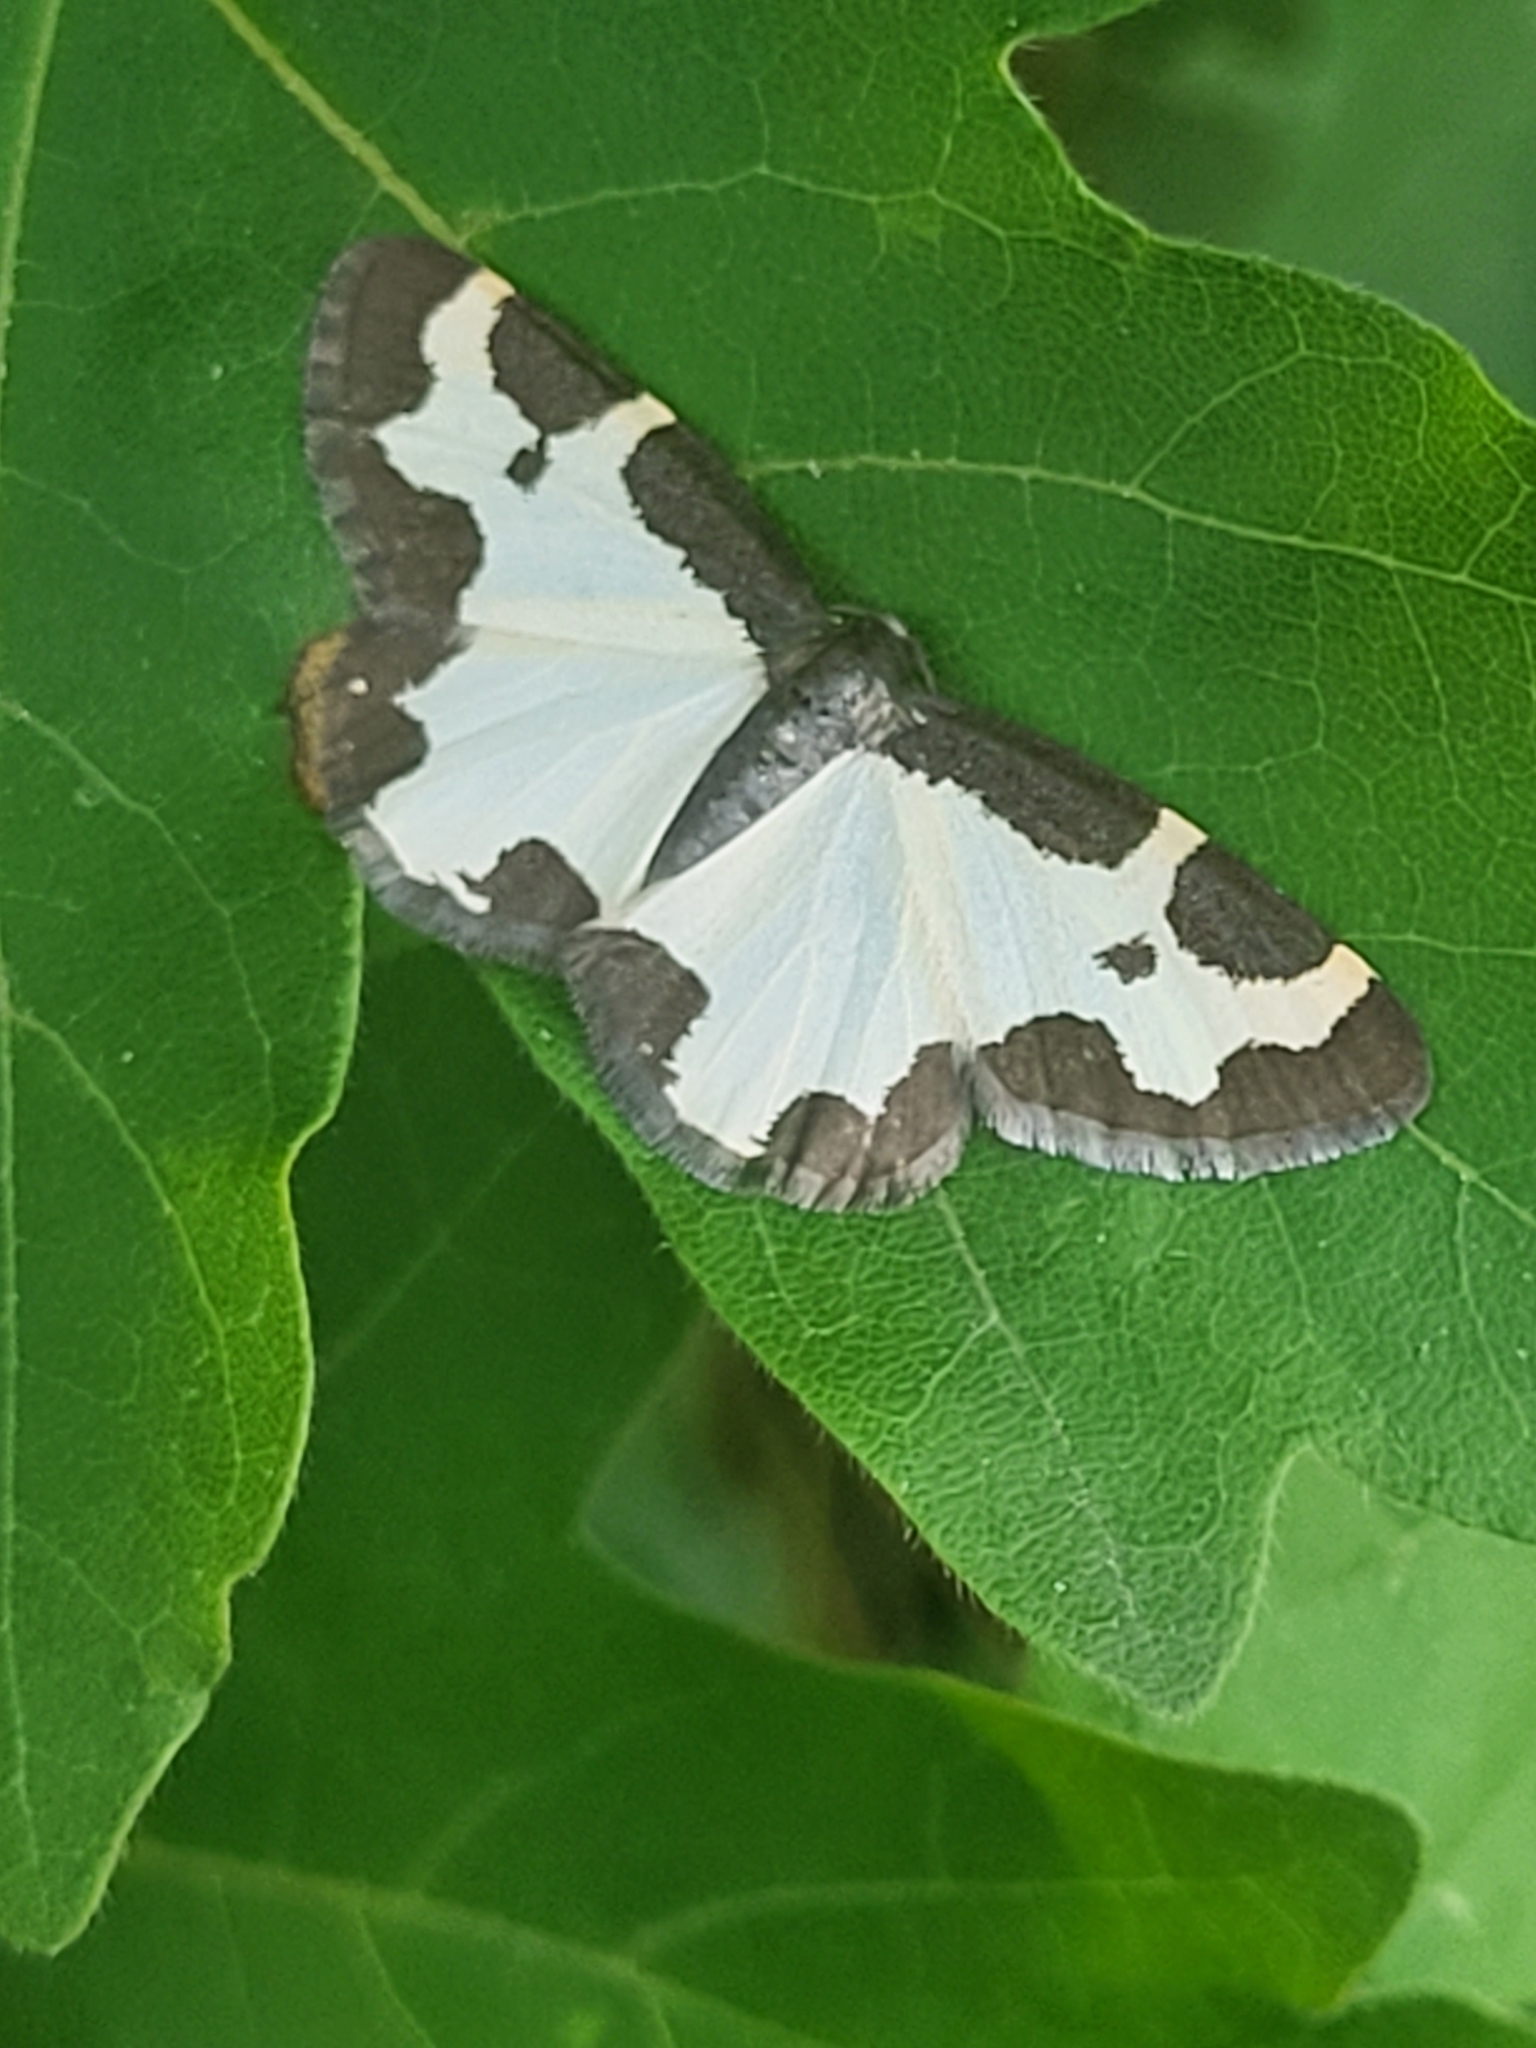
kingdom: Animalia
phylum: Arthropoda
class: Insecta
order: Lepidoptera
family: Geometridae
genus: Lomaspilis
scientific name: Lomaspilis marginata
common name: Clouded border
